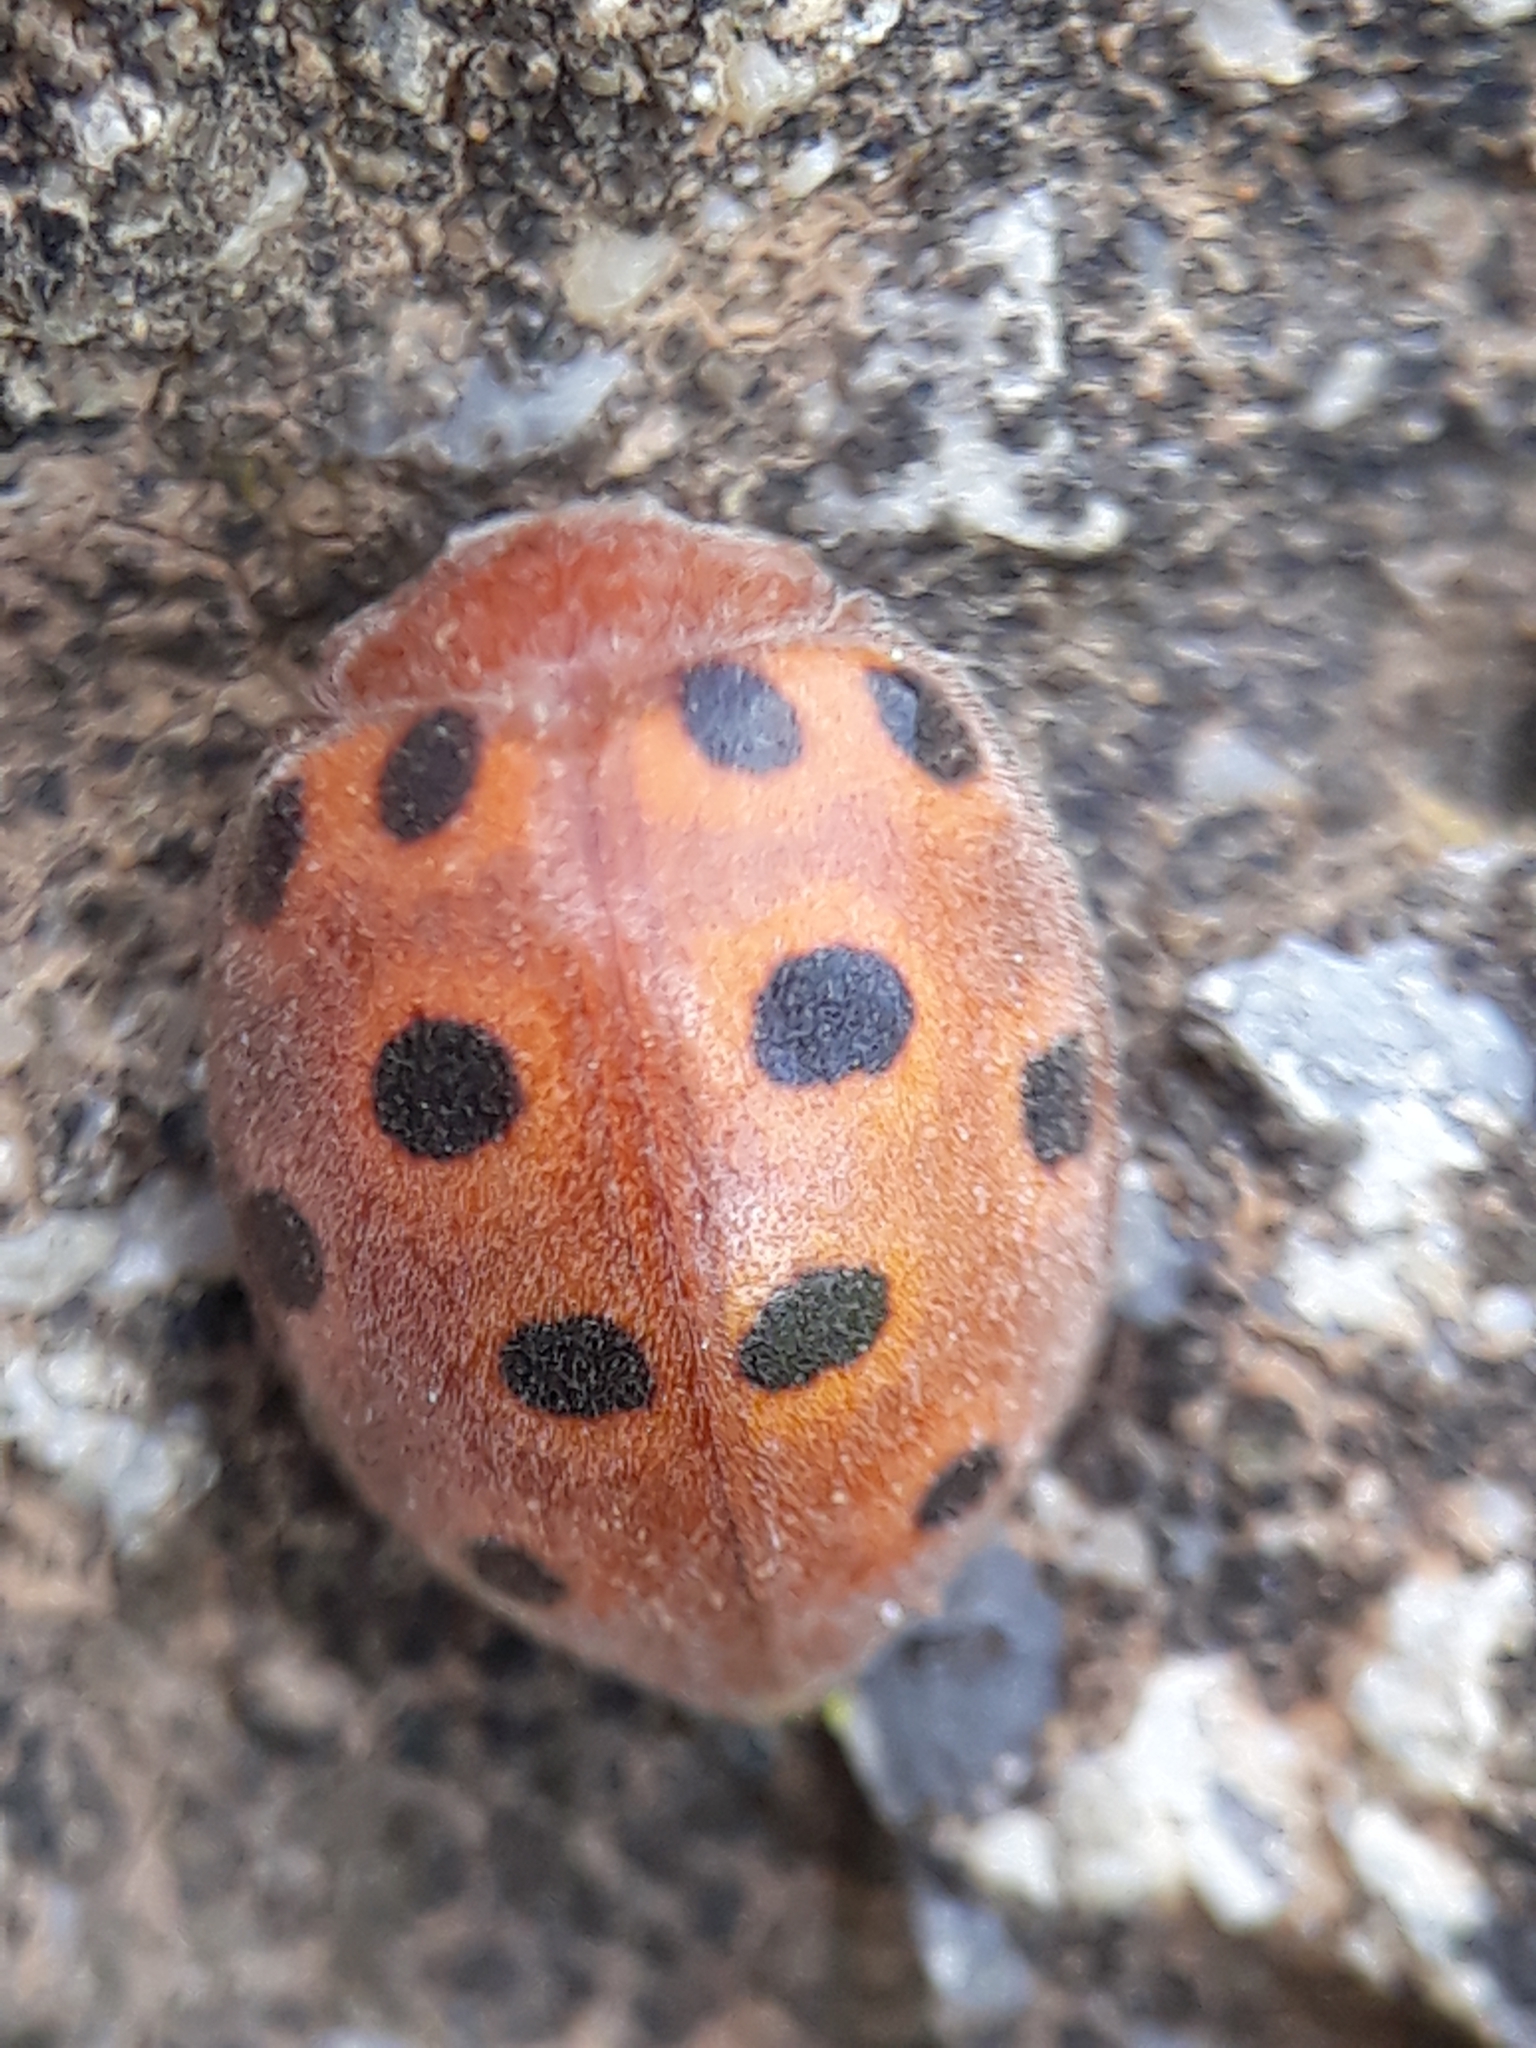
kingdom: Animalia
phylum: Arthropoda
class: Insecta
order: Coleoptera
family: Coccinellidae
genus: Chnootriba
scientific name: Chnootriba elaterii
